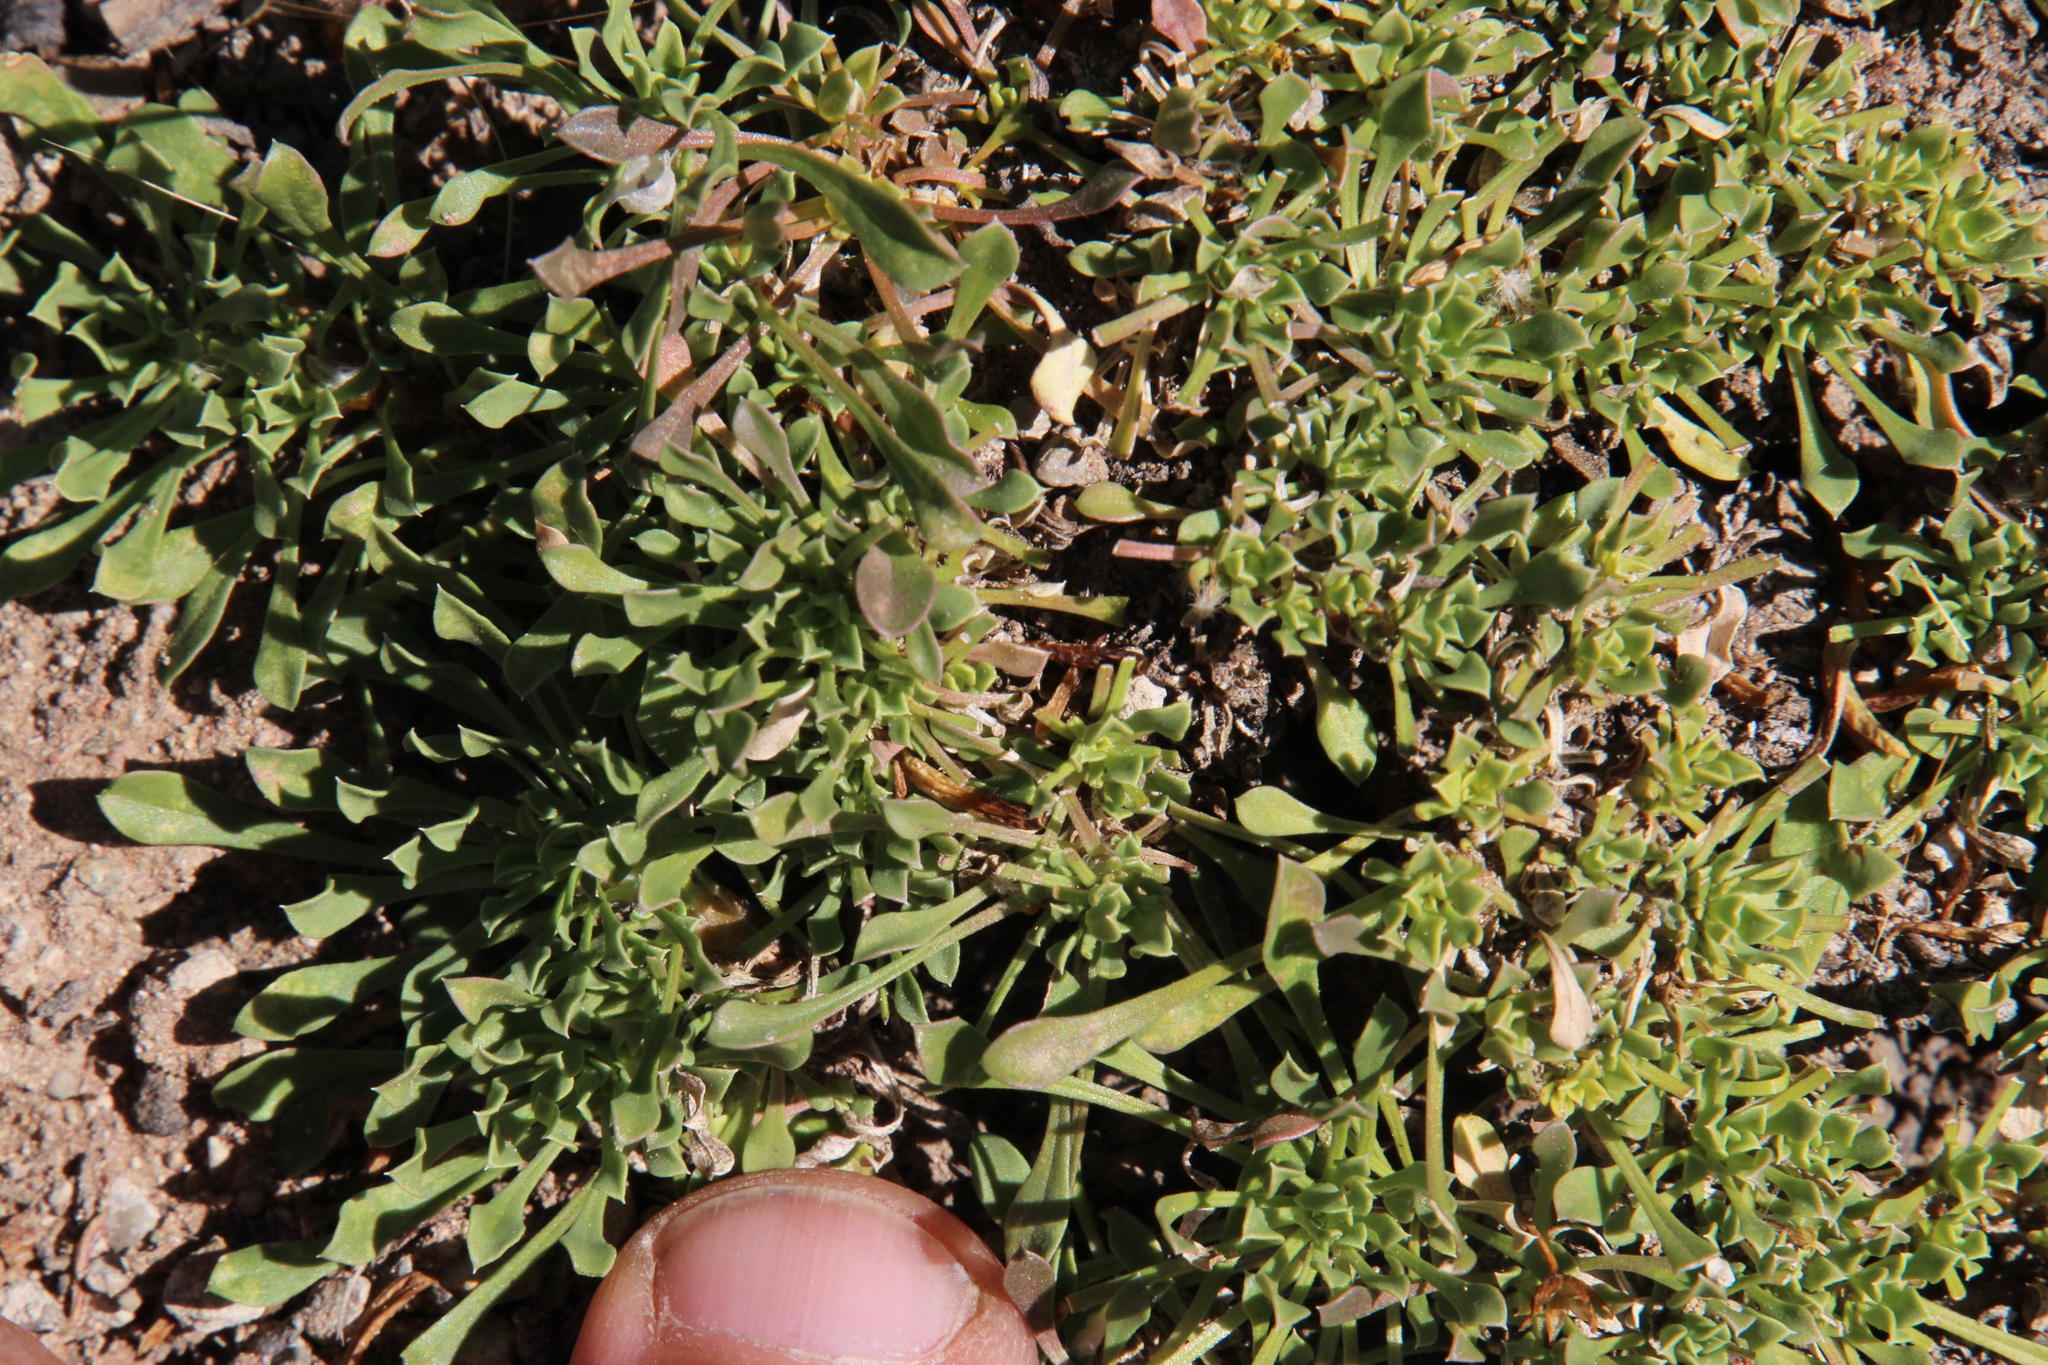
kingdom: Plantae
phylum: Tracheophyta
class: Magnoliopsida
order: Lamiales
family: Scrophulariaceae
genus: Aptosimum
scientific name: Aptosimum indivisum
